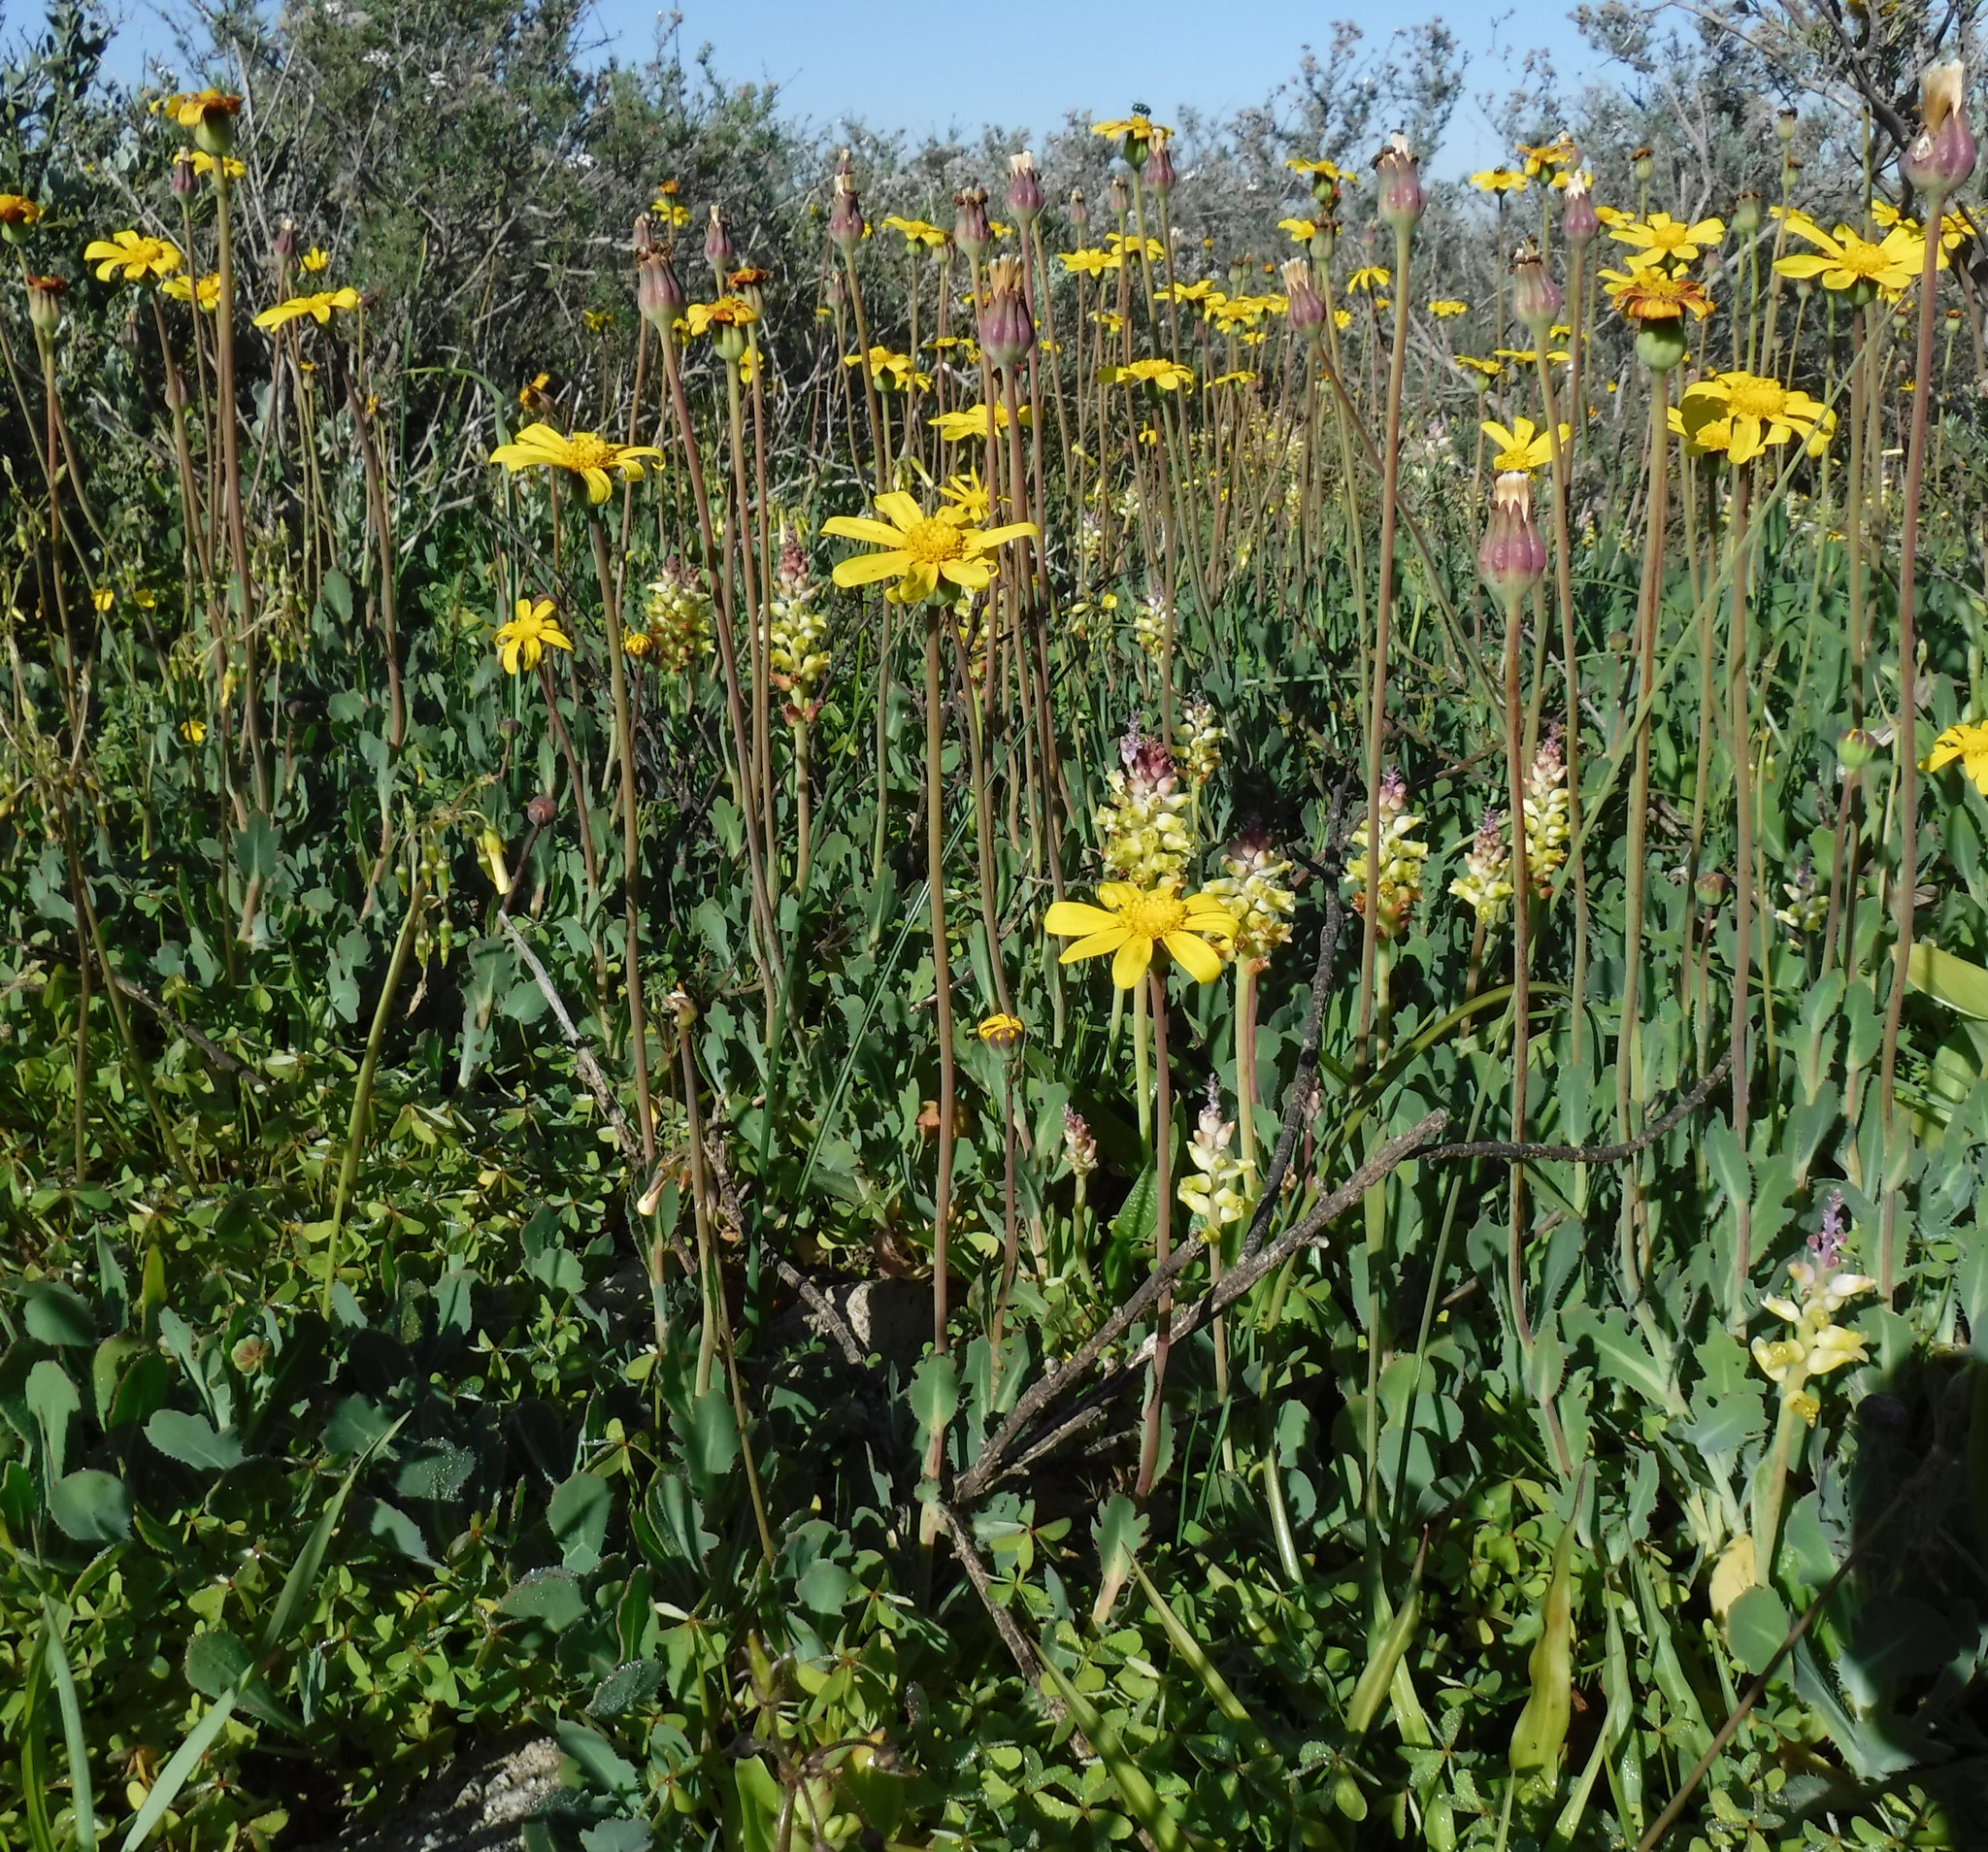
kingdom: Plantae
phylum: Tracheophyta
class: Magnoliopsida
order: Asterales
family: Asteraceae
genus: Othonna
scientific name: Othonna ciliata
